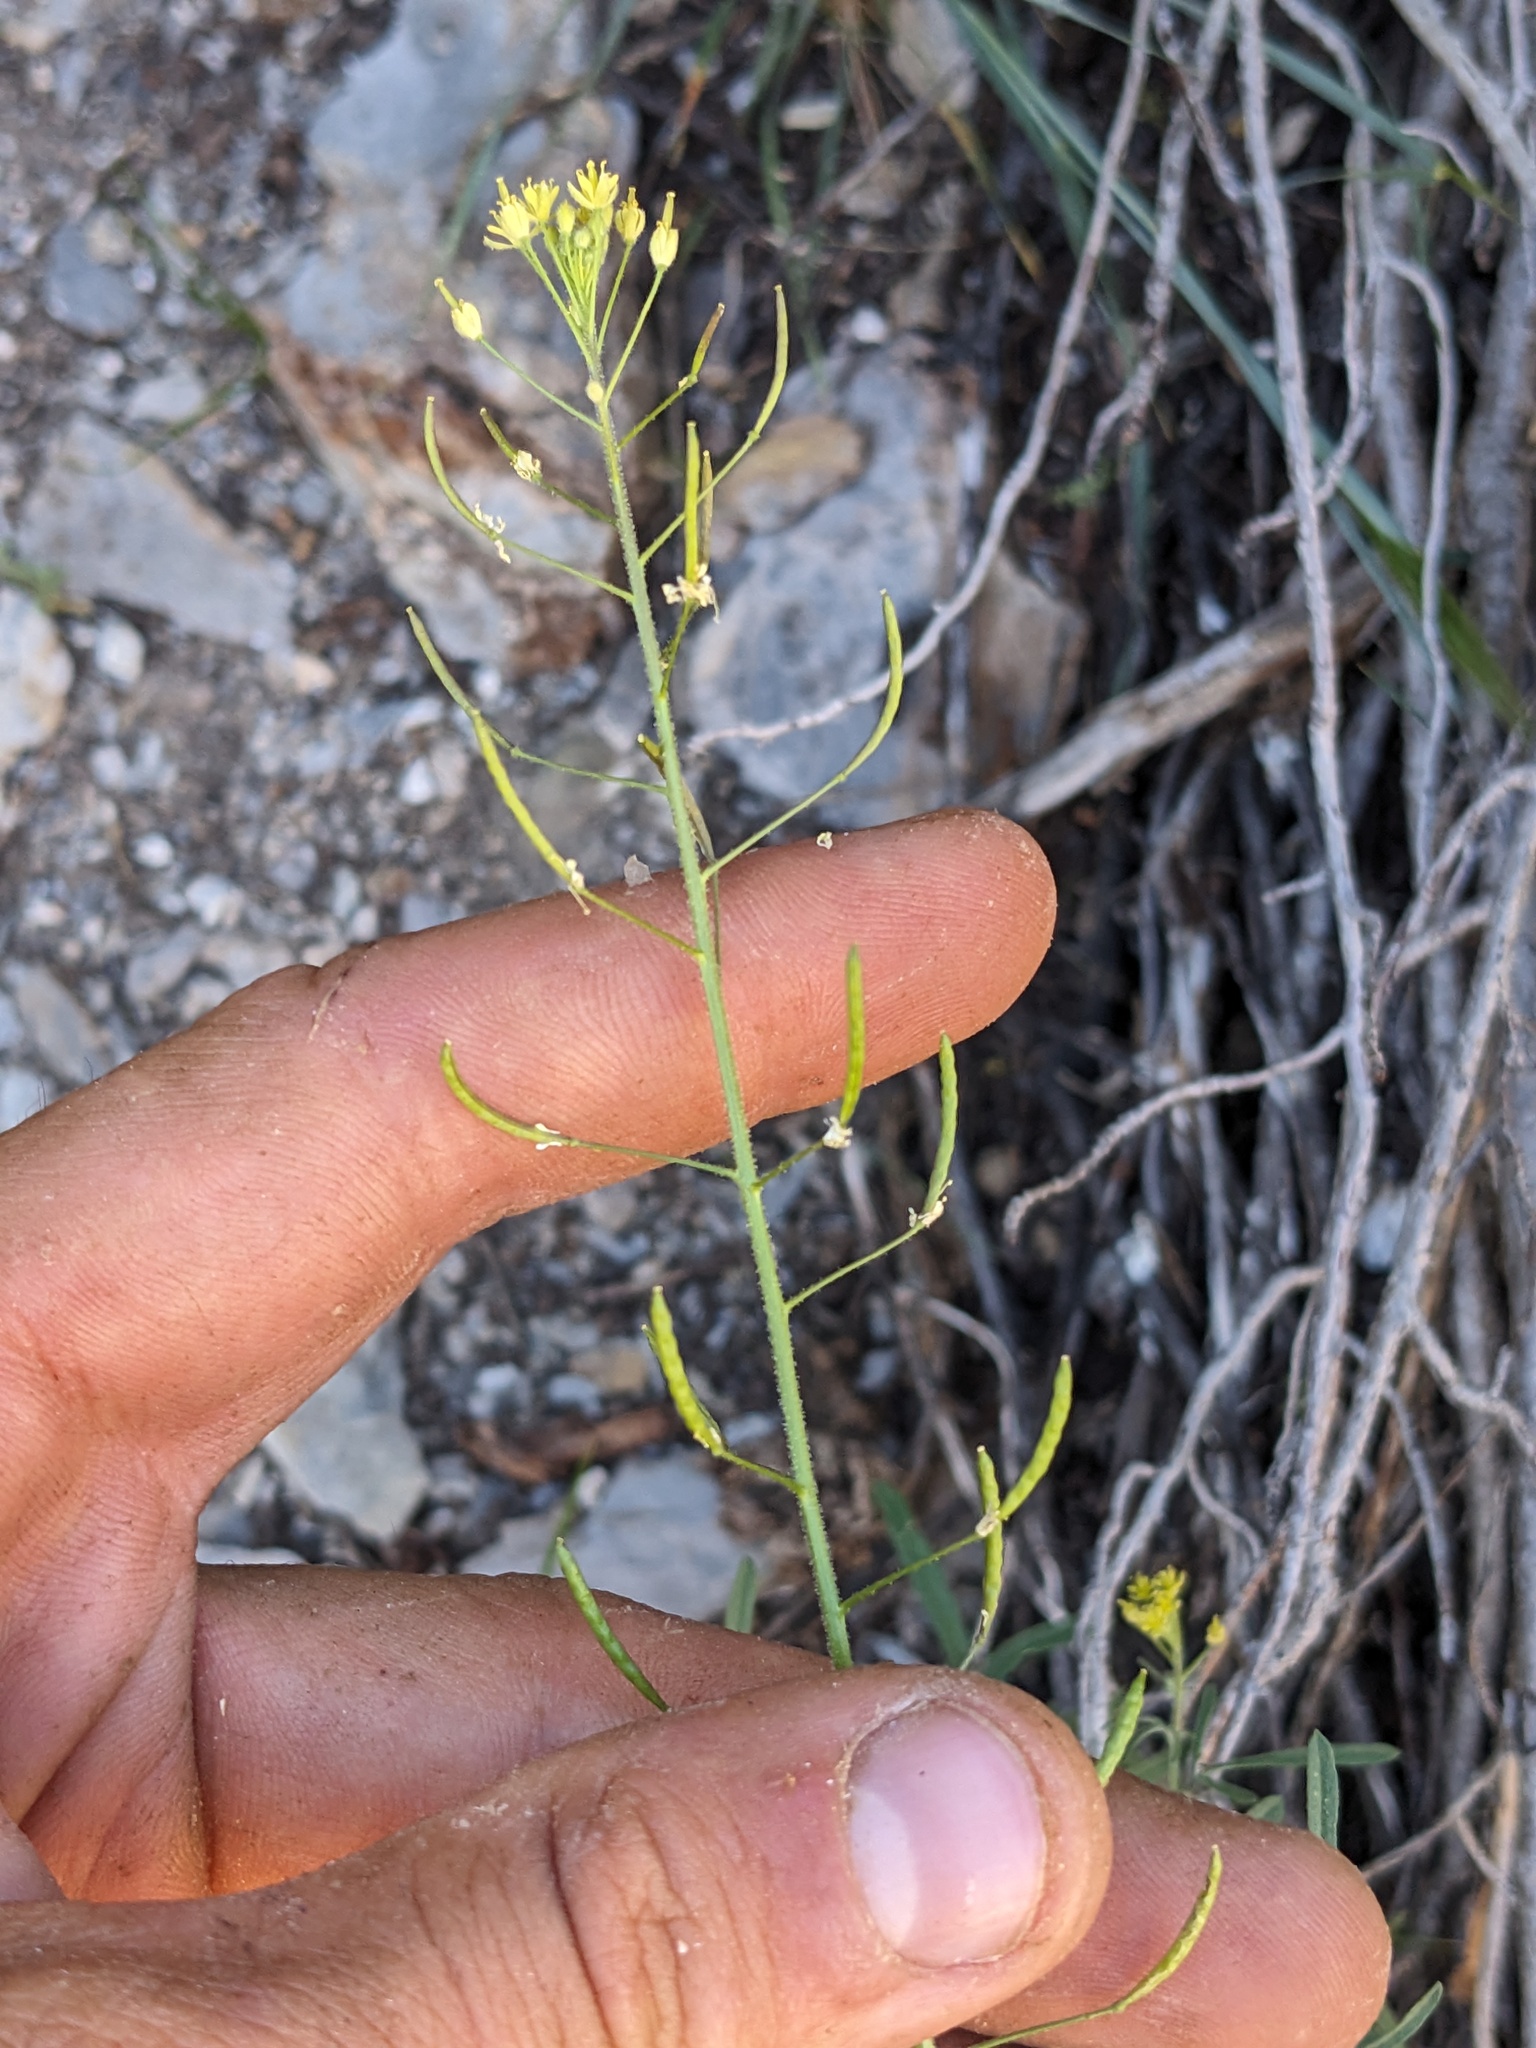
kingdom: Plantae
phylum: Tracheophyta
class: Magnoliopsida
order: Brassicales
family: Brassicaceae
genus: Descurainia
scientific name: Descurainia pinnata
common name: Western tansy mustard
